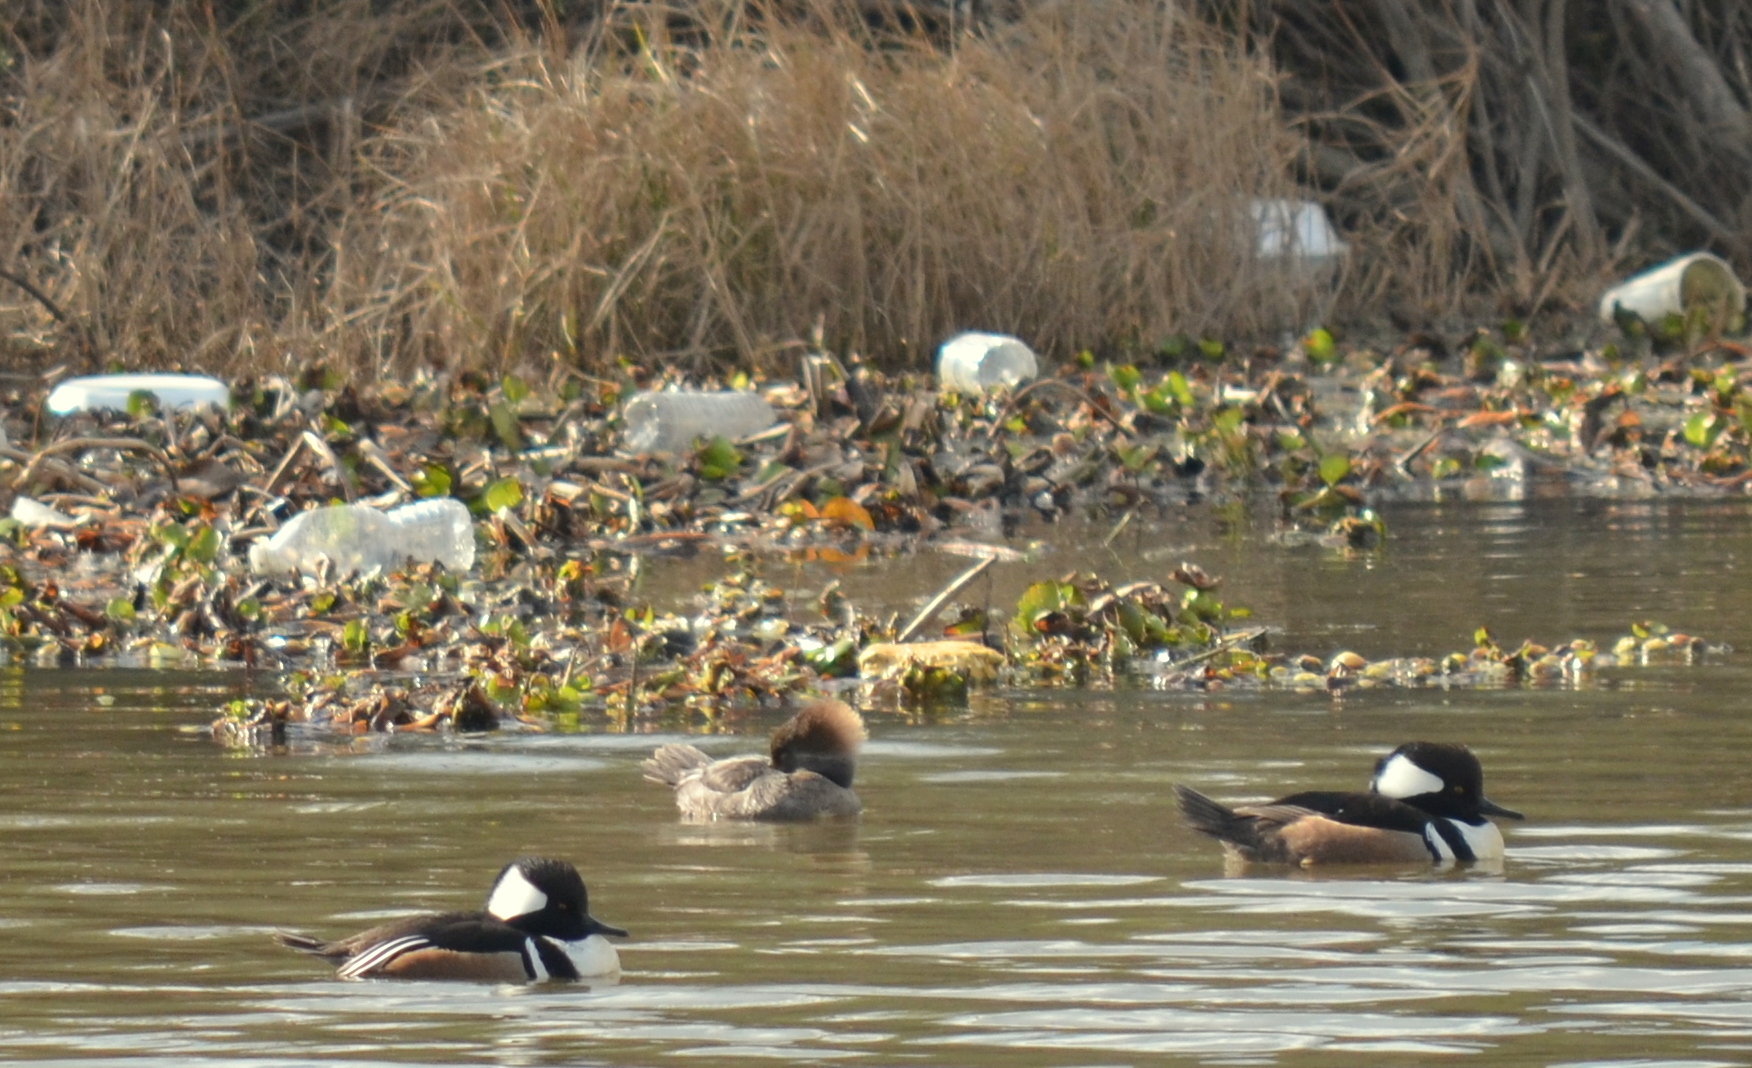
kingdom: Animalia
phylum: Chordata
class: Aves
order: Anseriformes
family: Anatidae
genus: Lophodytes
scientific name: Lophodytes cucullatus
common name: Hooded merganser
